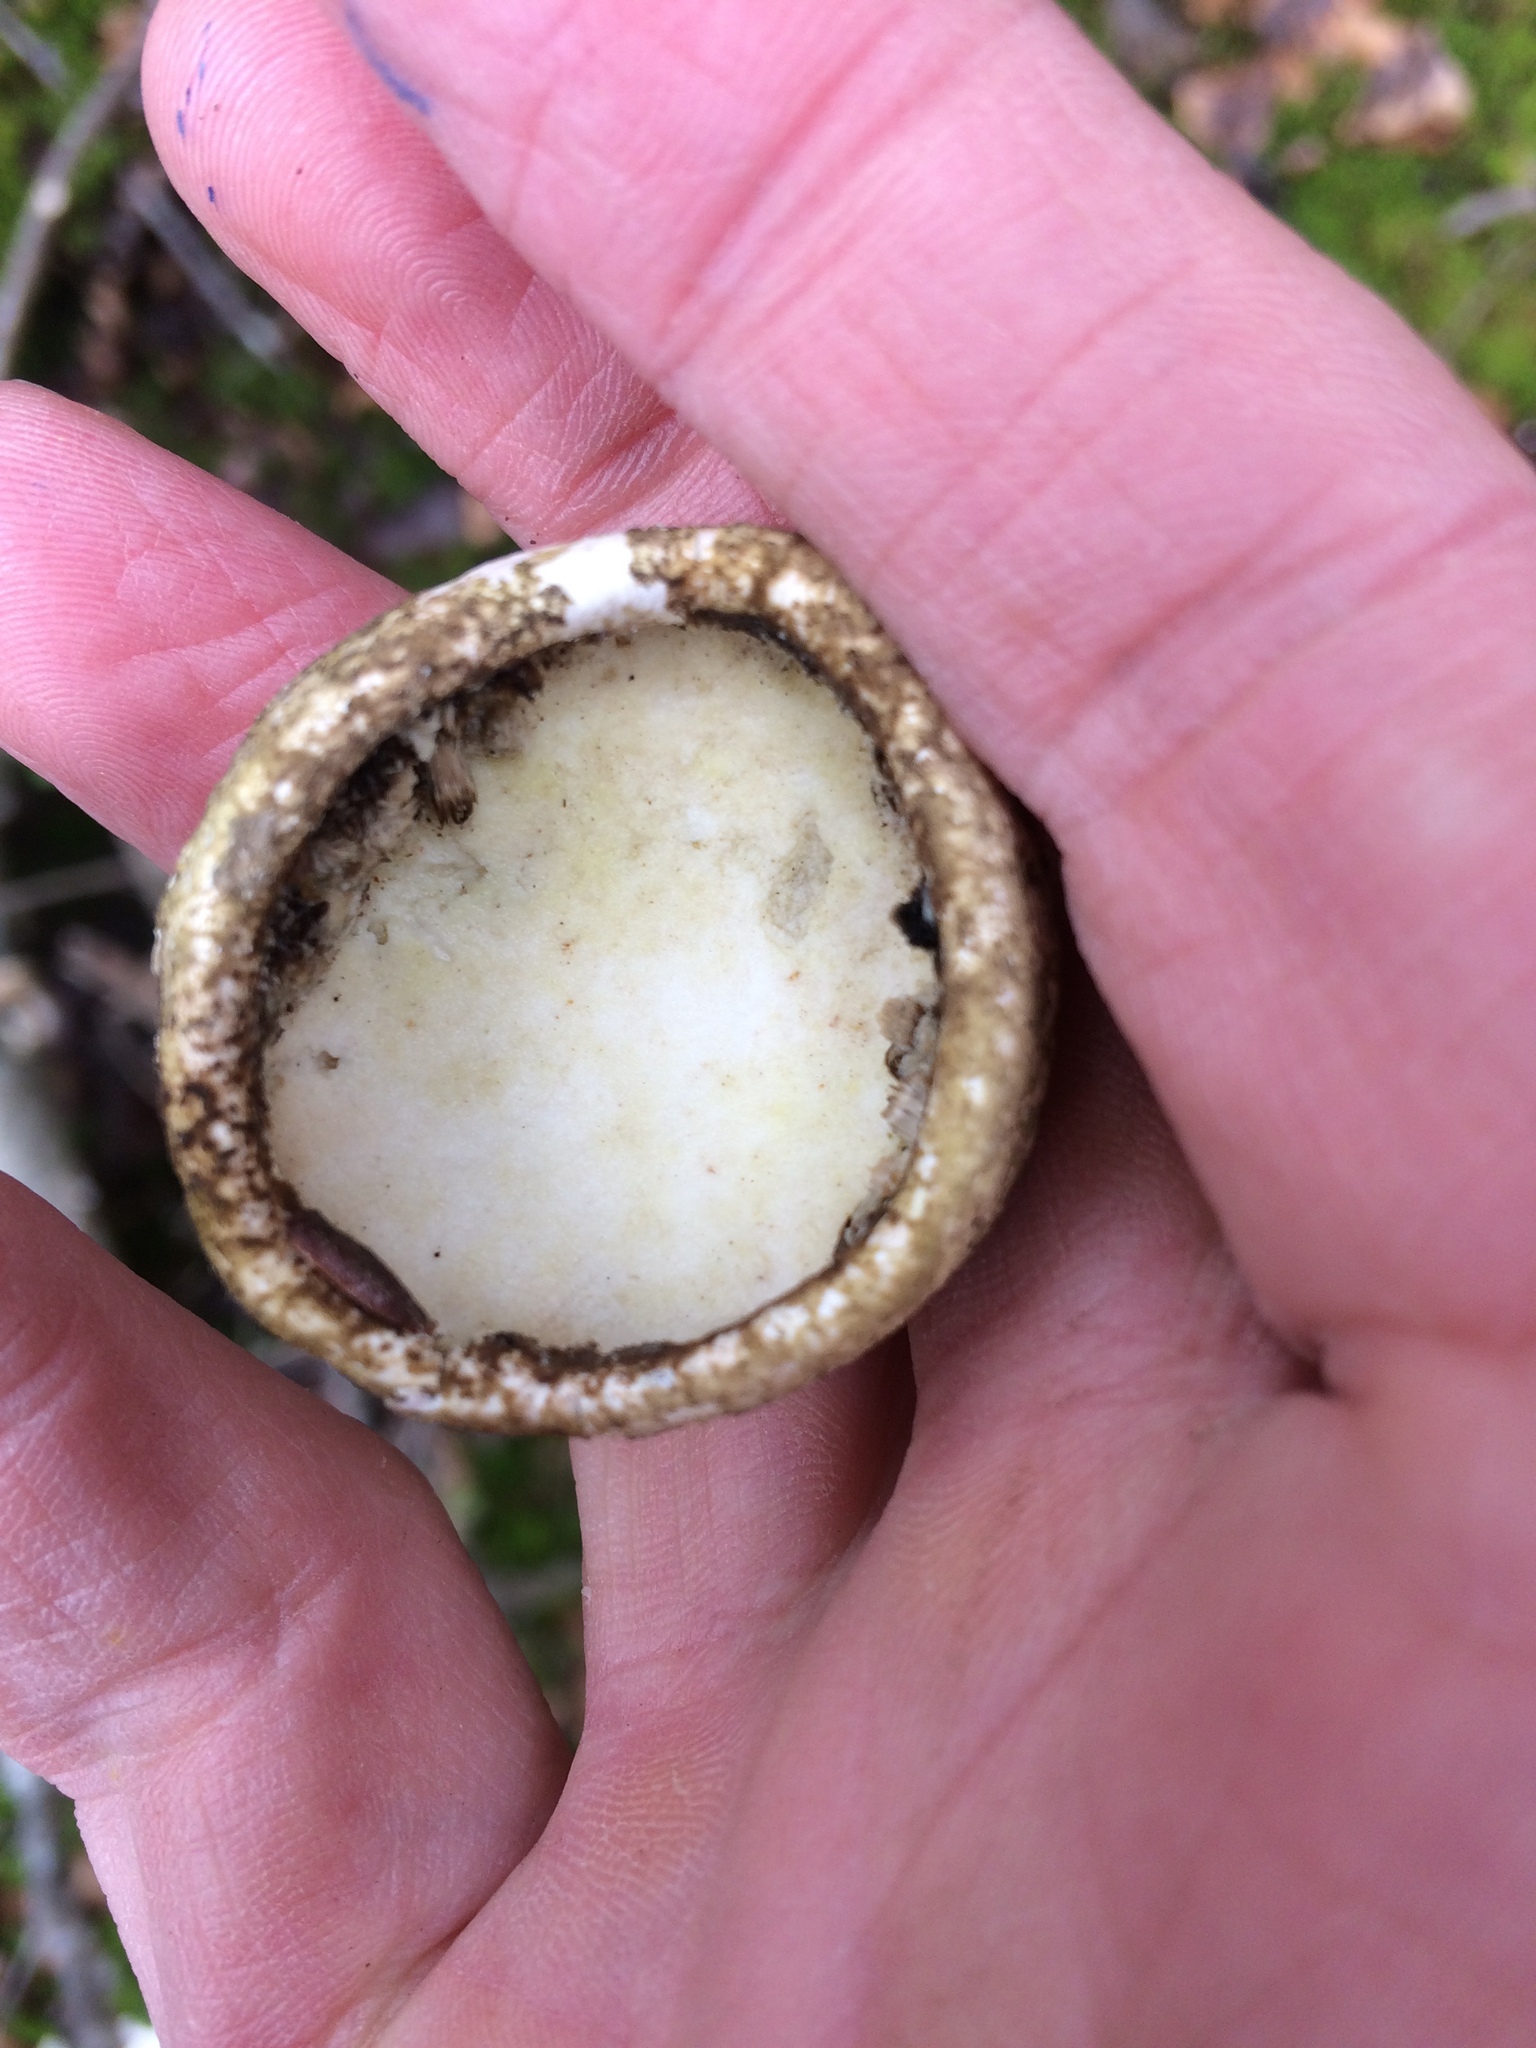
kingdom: Fungi
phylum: Basidiomycota
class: Agaricomycetes
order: Polyporales
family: Fomitopsidaceae
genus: Fomitopsis
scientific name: Fomitopsis betulina
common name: Birch polypore
